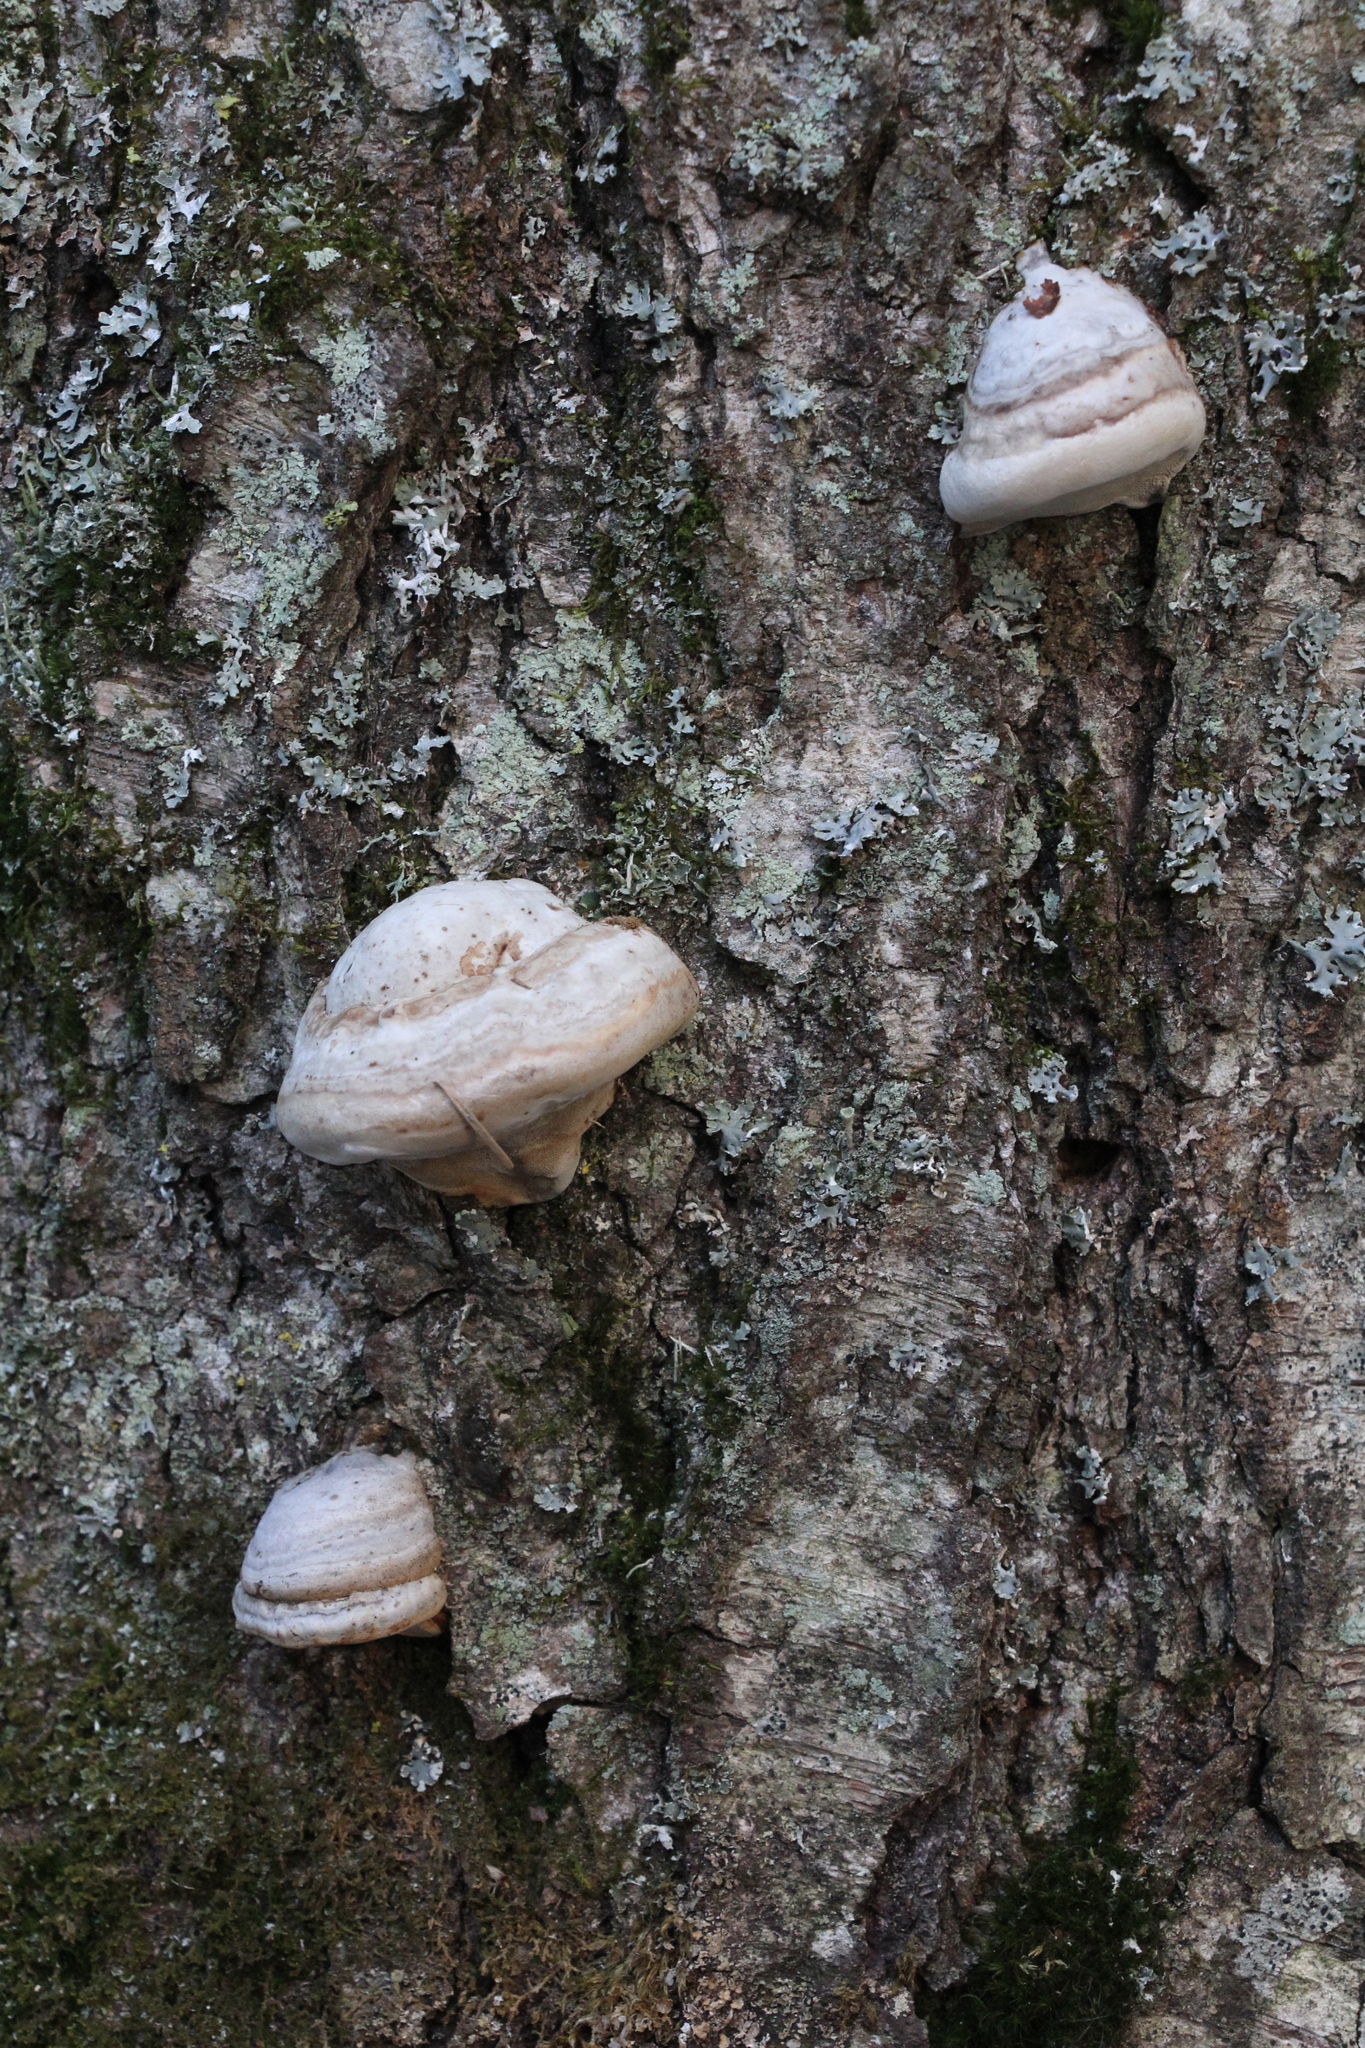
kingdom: Fungi
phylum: Basidiomycota
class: Agaricomycetes
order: Polyporales
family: Polyporaceae
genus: Fomes
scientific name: Fomes fomentarius
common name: Hoof fungus
